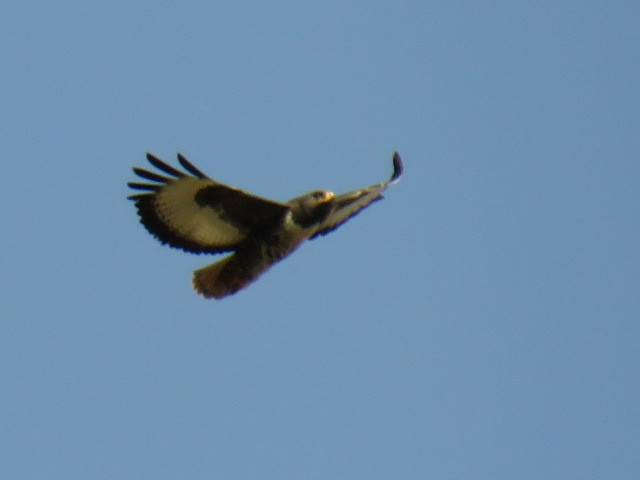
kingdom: Animalia
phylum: Chordata
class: Aves
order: Accipitriformes
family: Accipitridae
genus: Buteo
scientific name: Buteo rufofuscus
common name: Jackal buzzard
